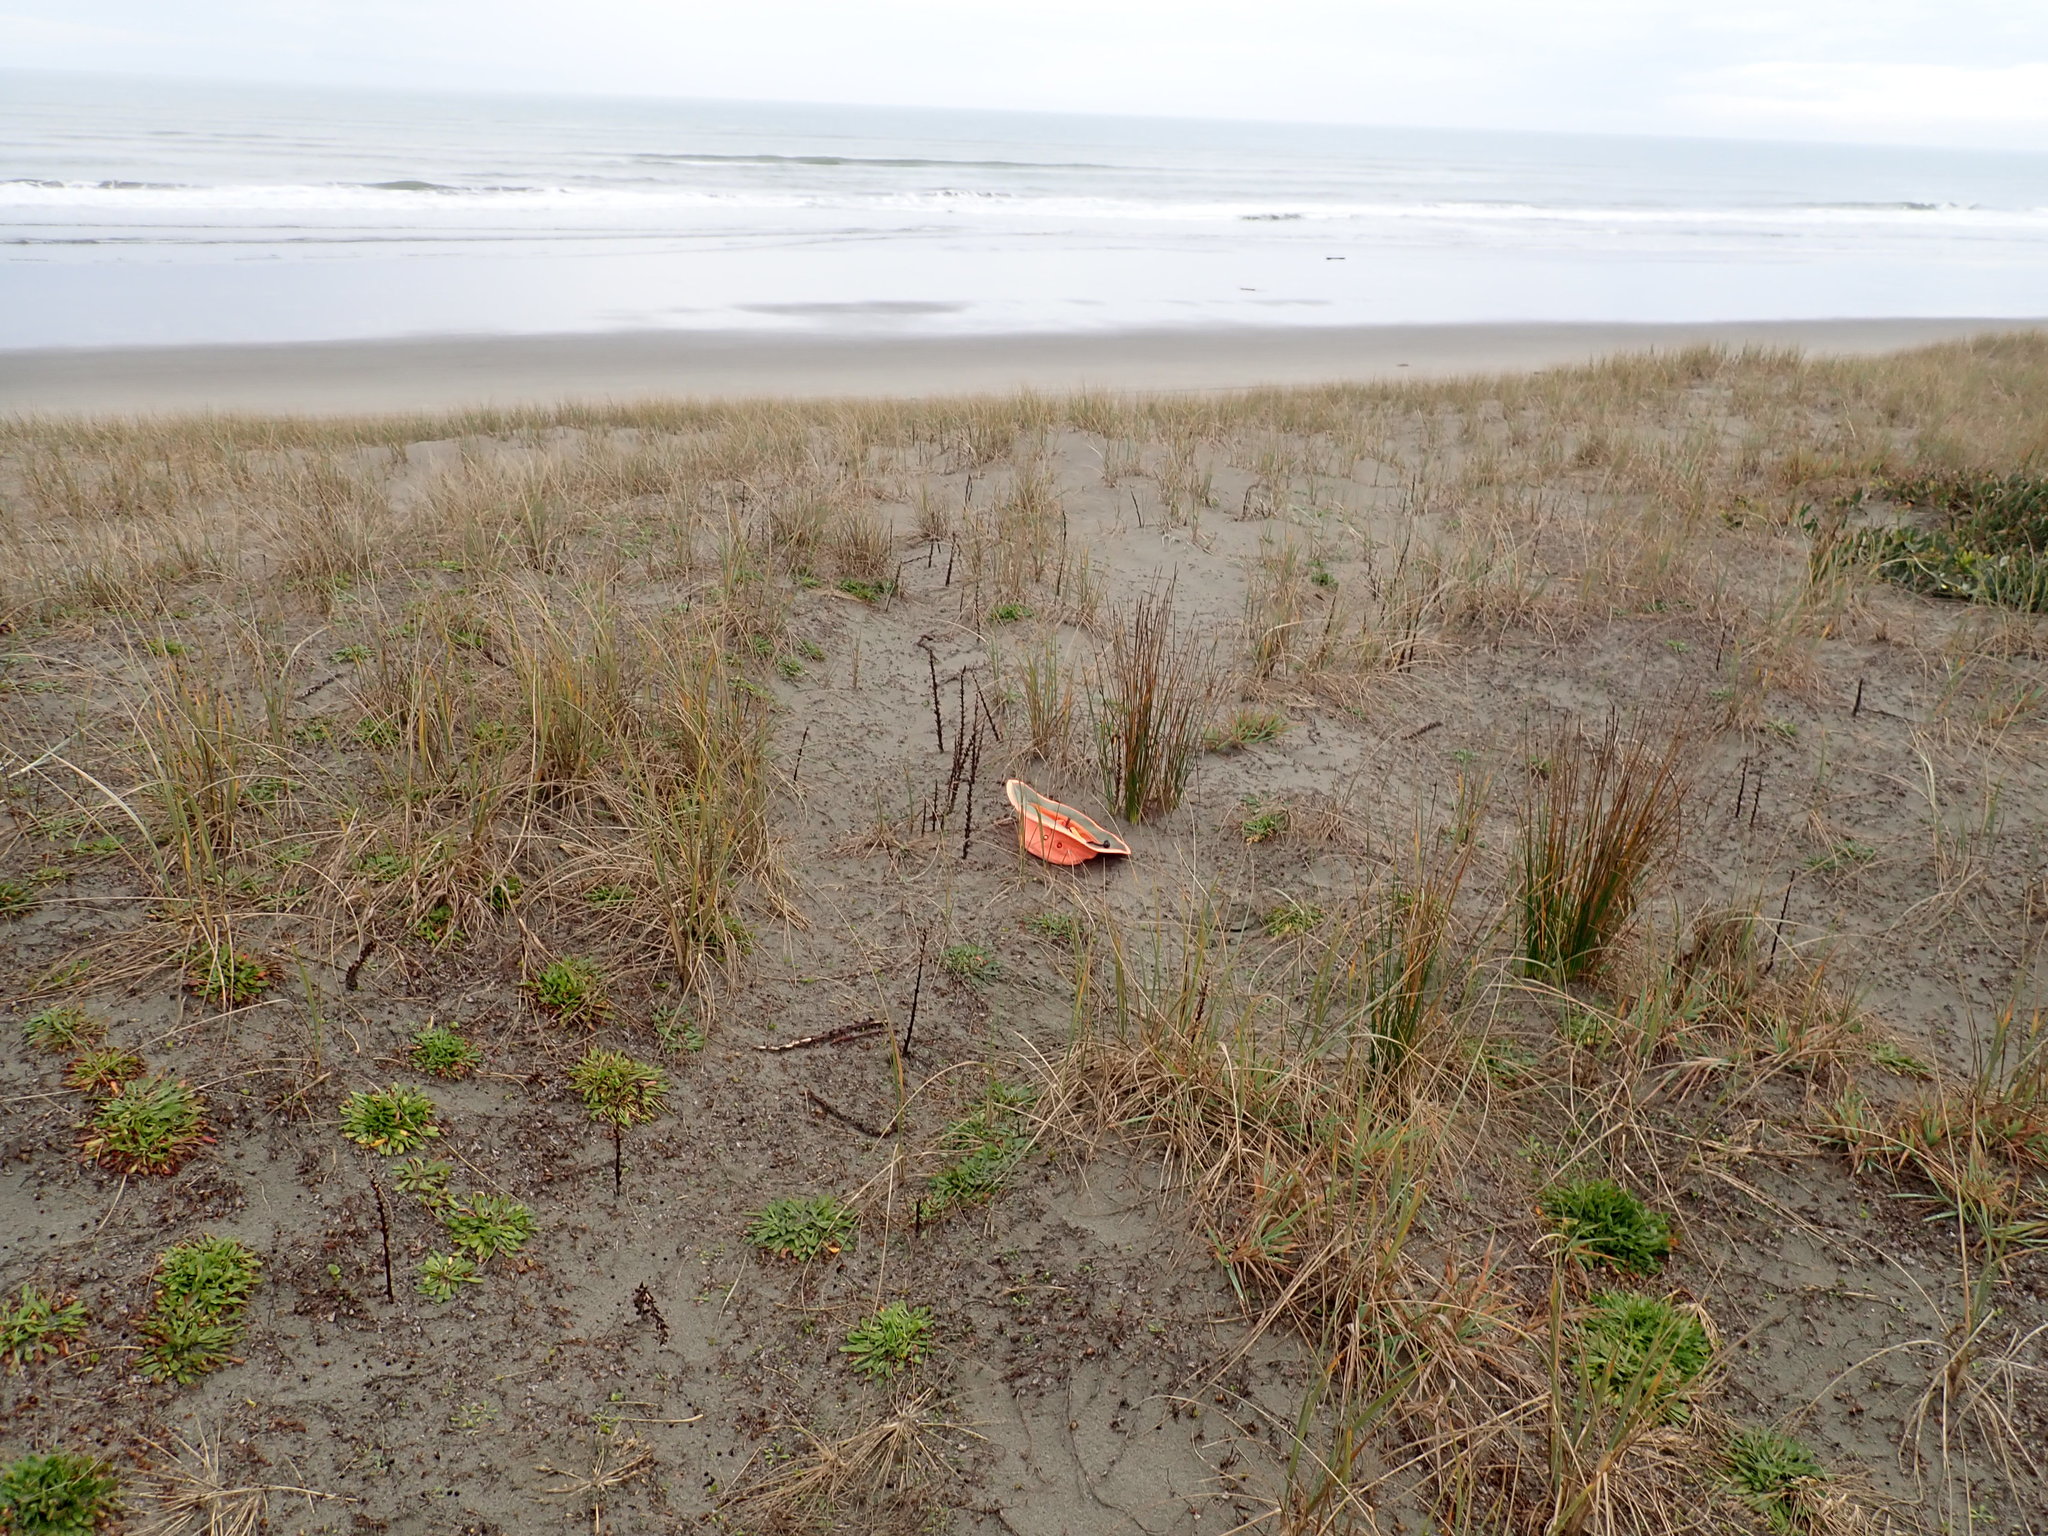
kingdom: Plantae
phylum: Tracheophyta
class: Magnoliopsida
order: Lamiales
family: Orobanchaceae
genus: Orobanche
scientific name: Orobanche minor
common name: Common broomrape
